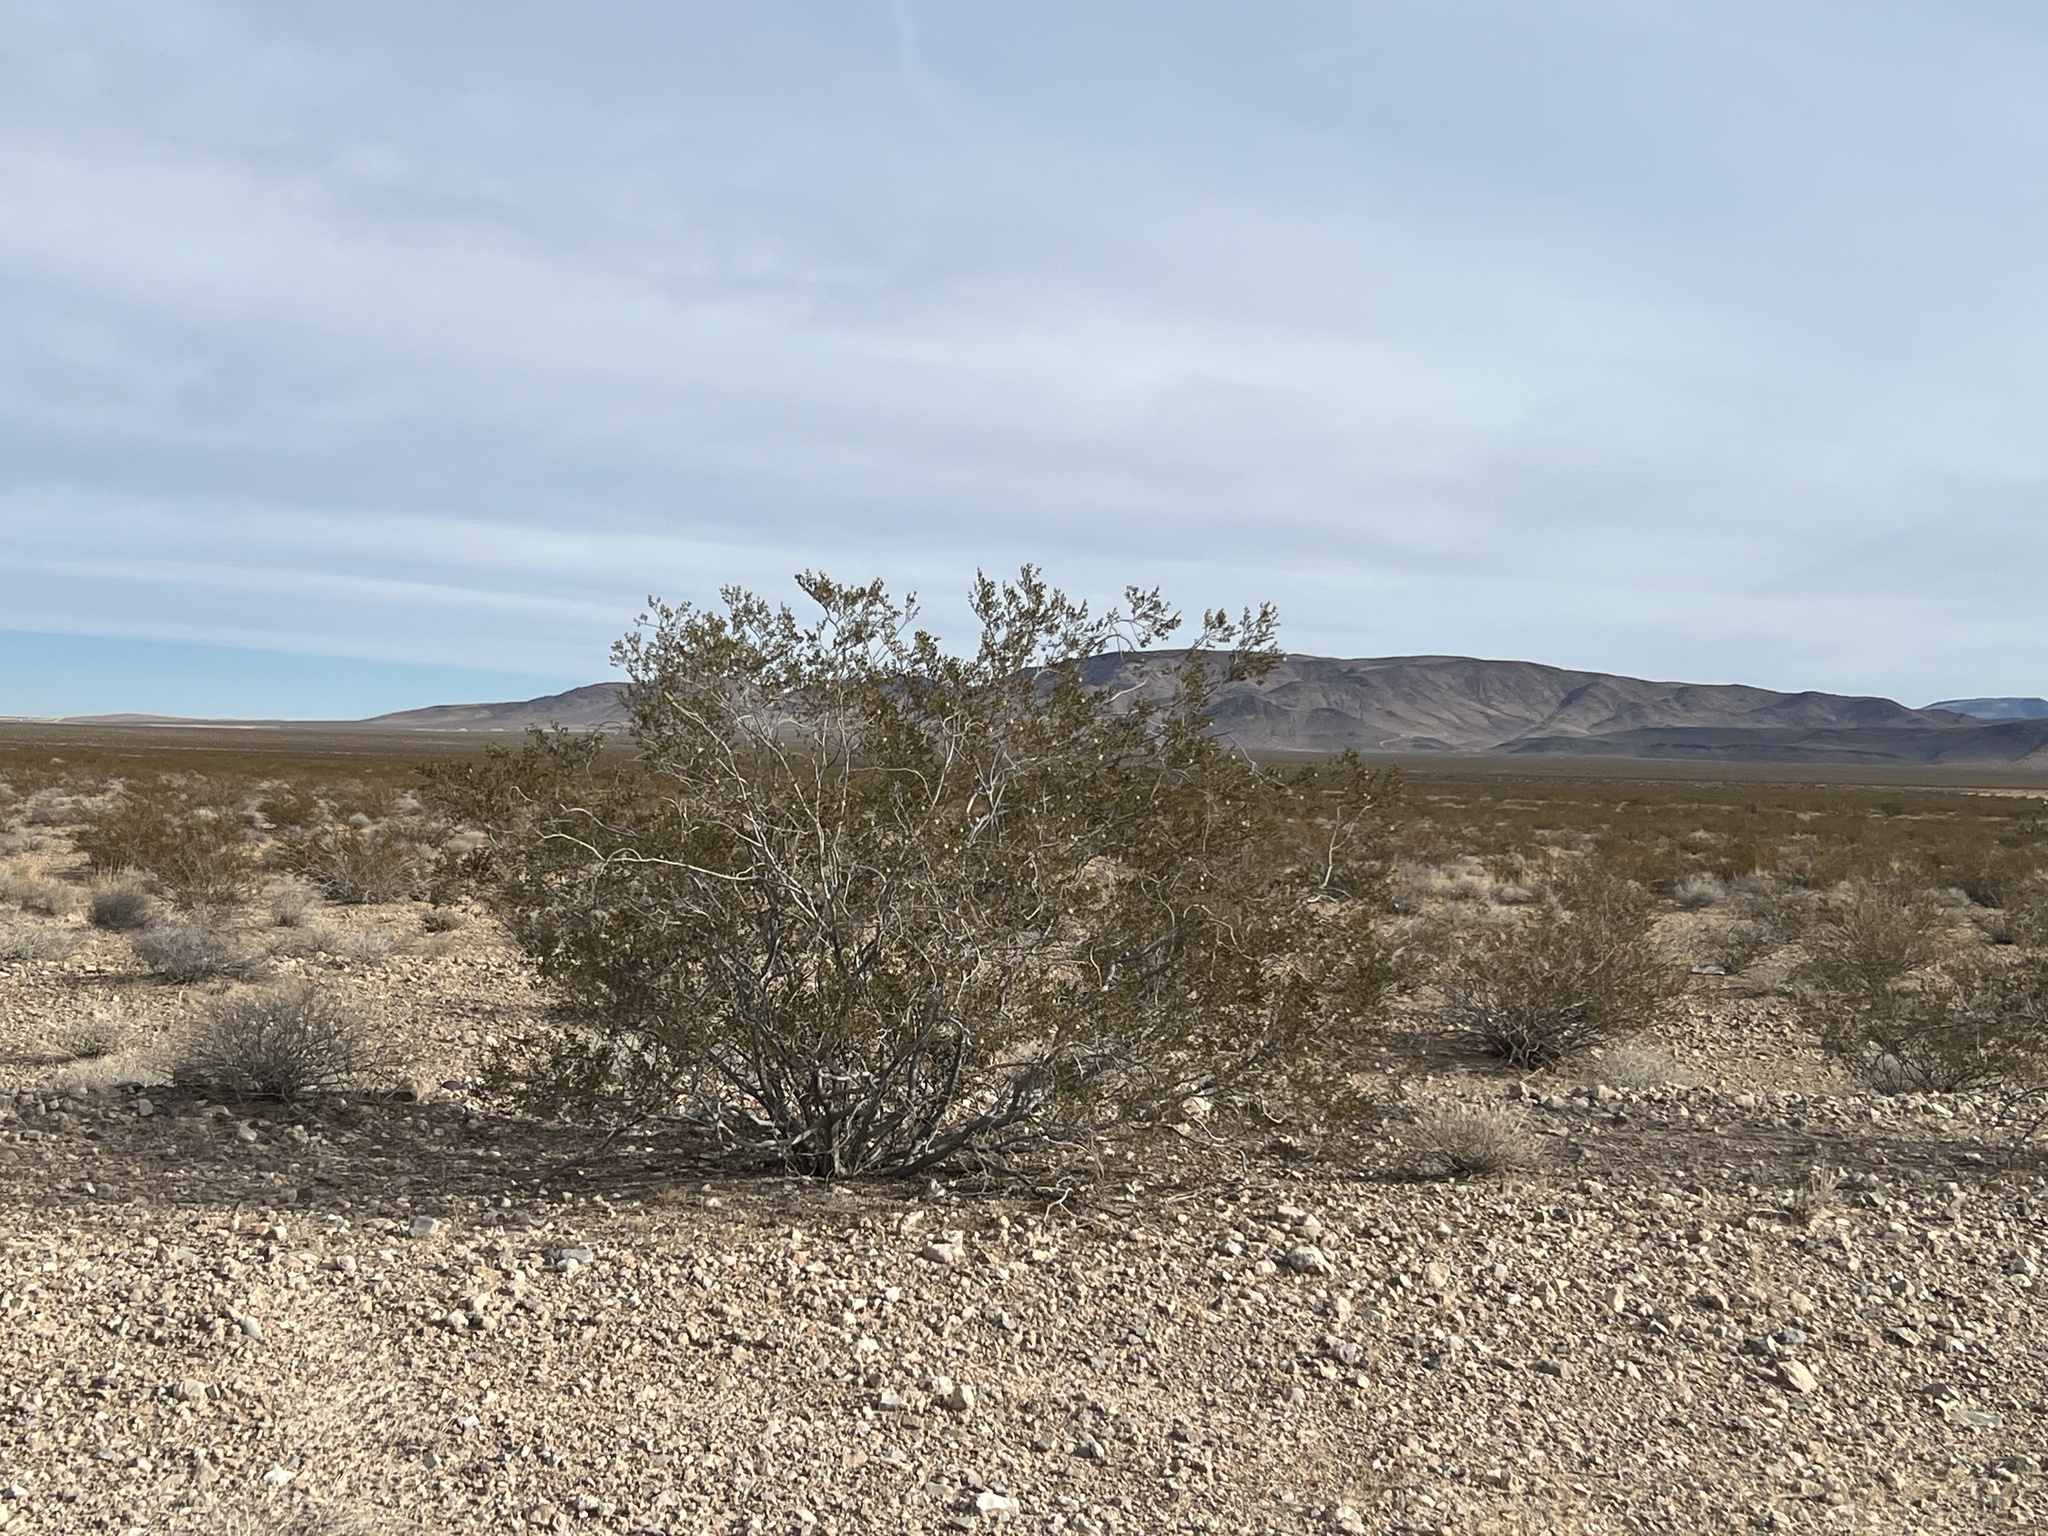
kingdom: Plantae
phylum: Tracheophyta
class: Magnoliopsida
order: Zygophyllales
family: Zygophyllaceae
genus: Larrea
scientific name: Larrea tridentata
